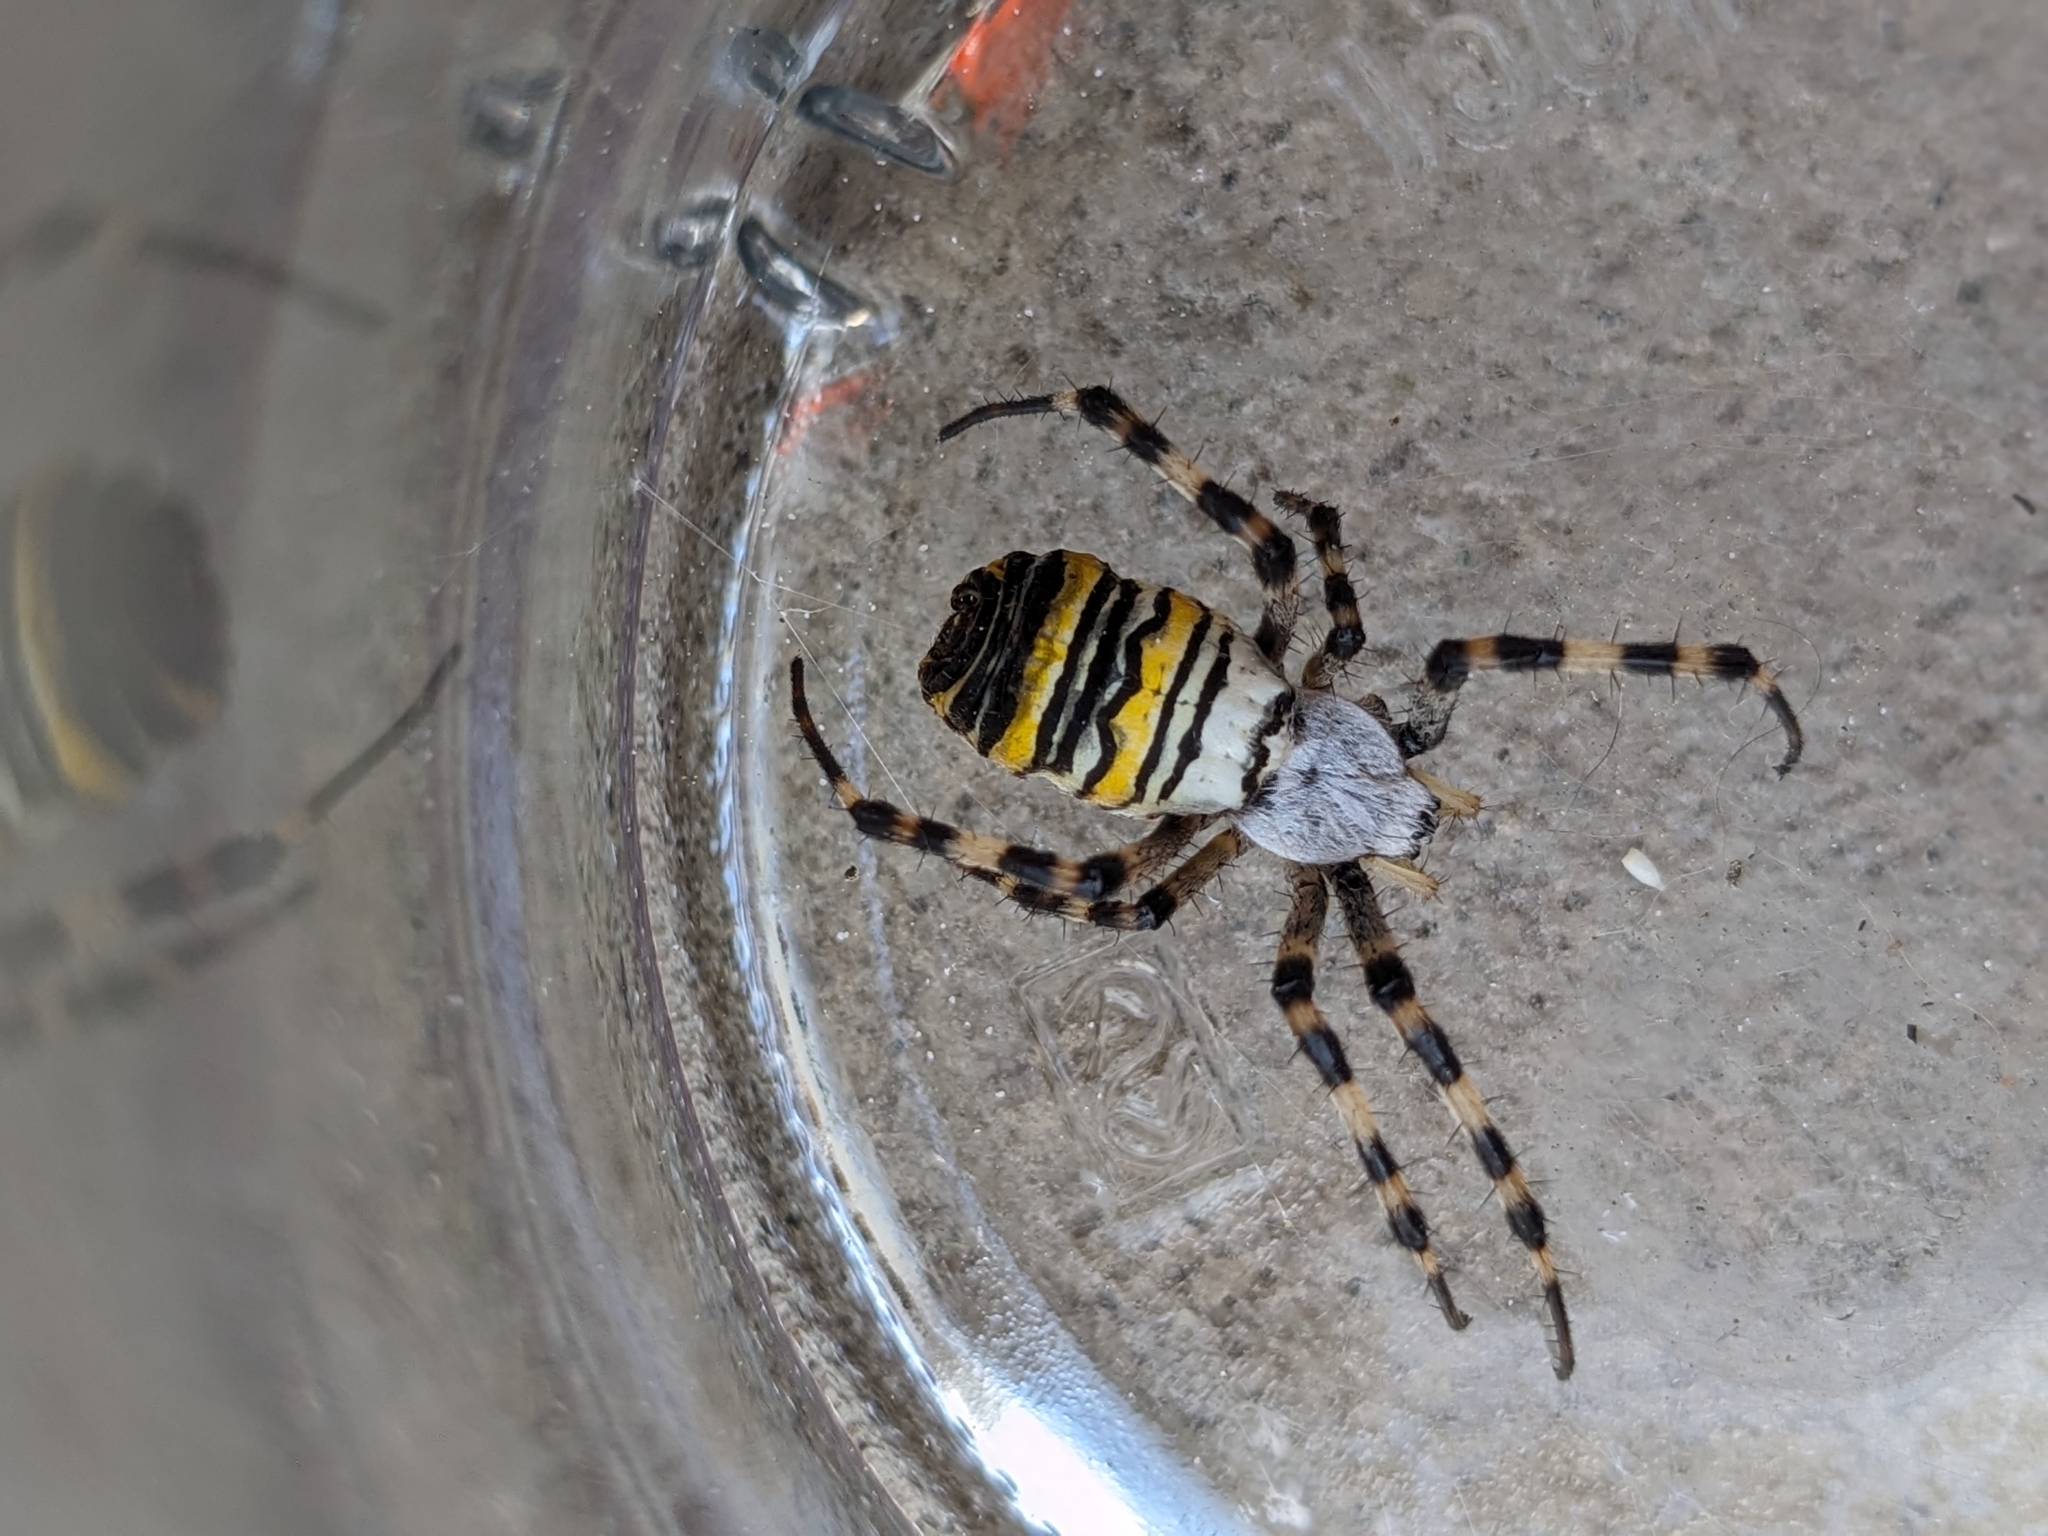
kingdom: Animalia
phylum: Arthropoda
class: Arachnida
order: Araneae
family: Araneidae
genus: Argiope
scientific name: Argiope bruennichi
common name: Wasp spider
